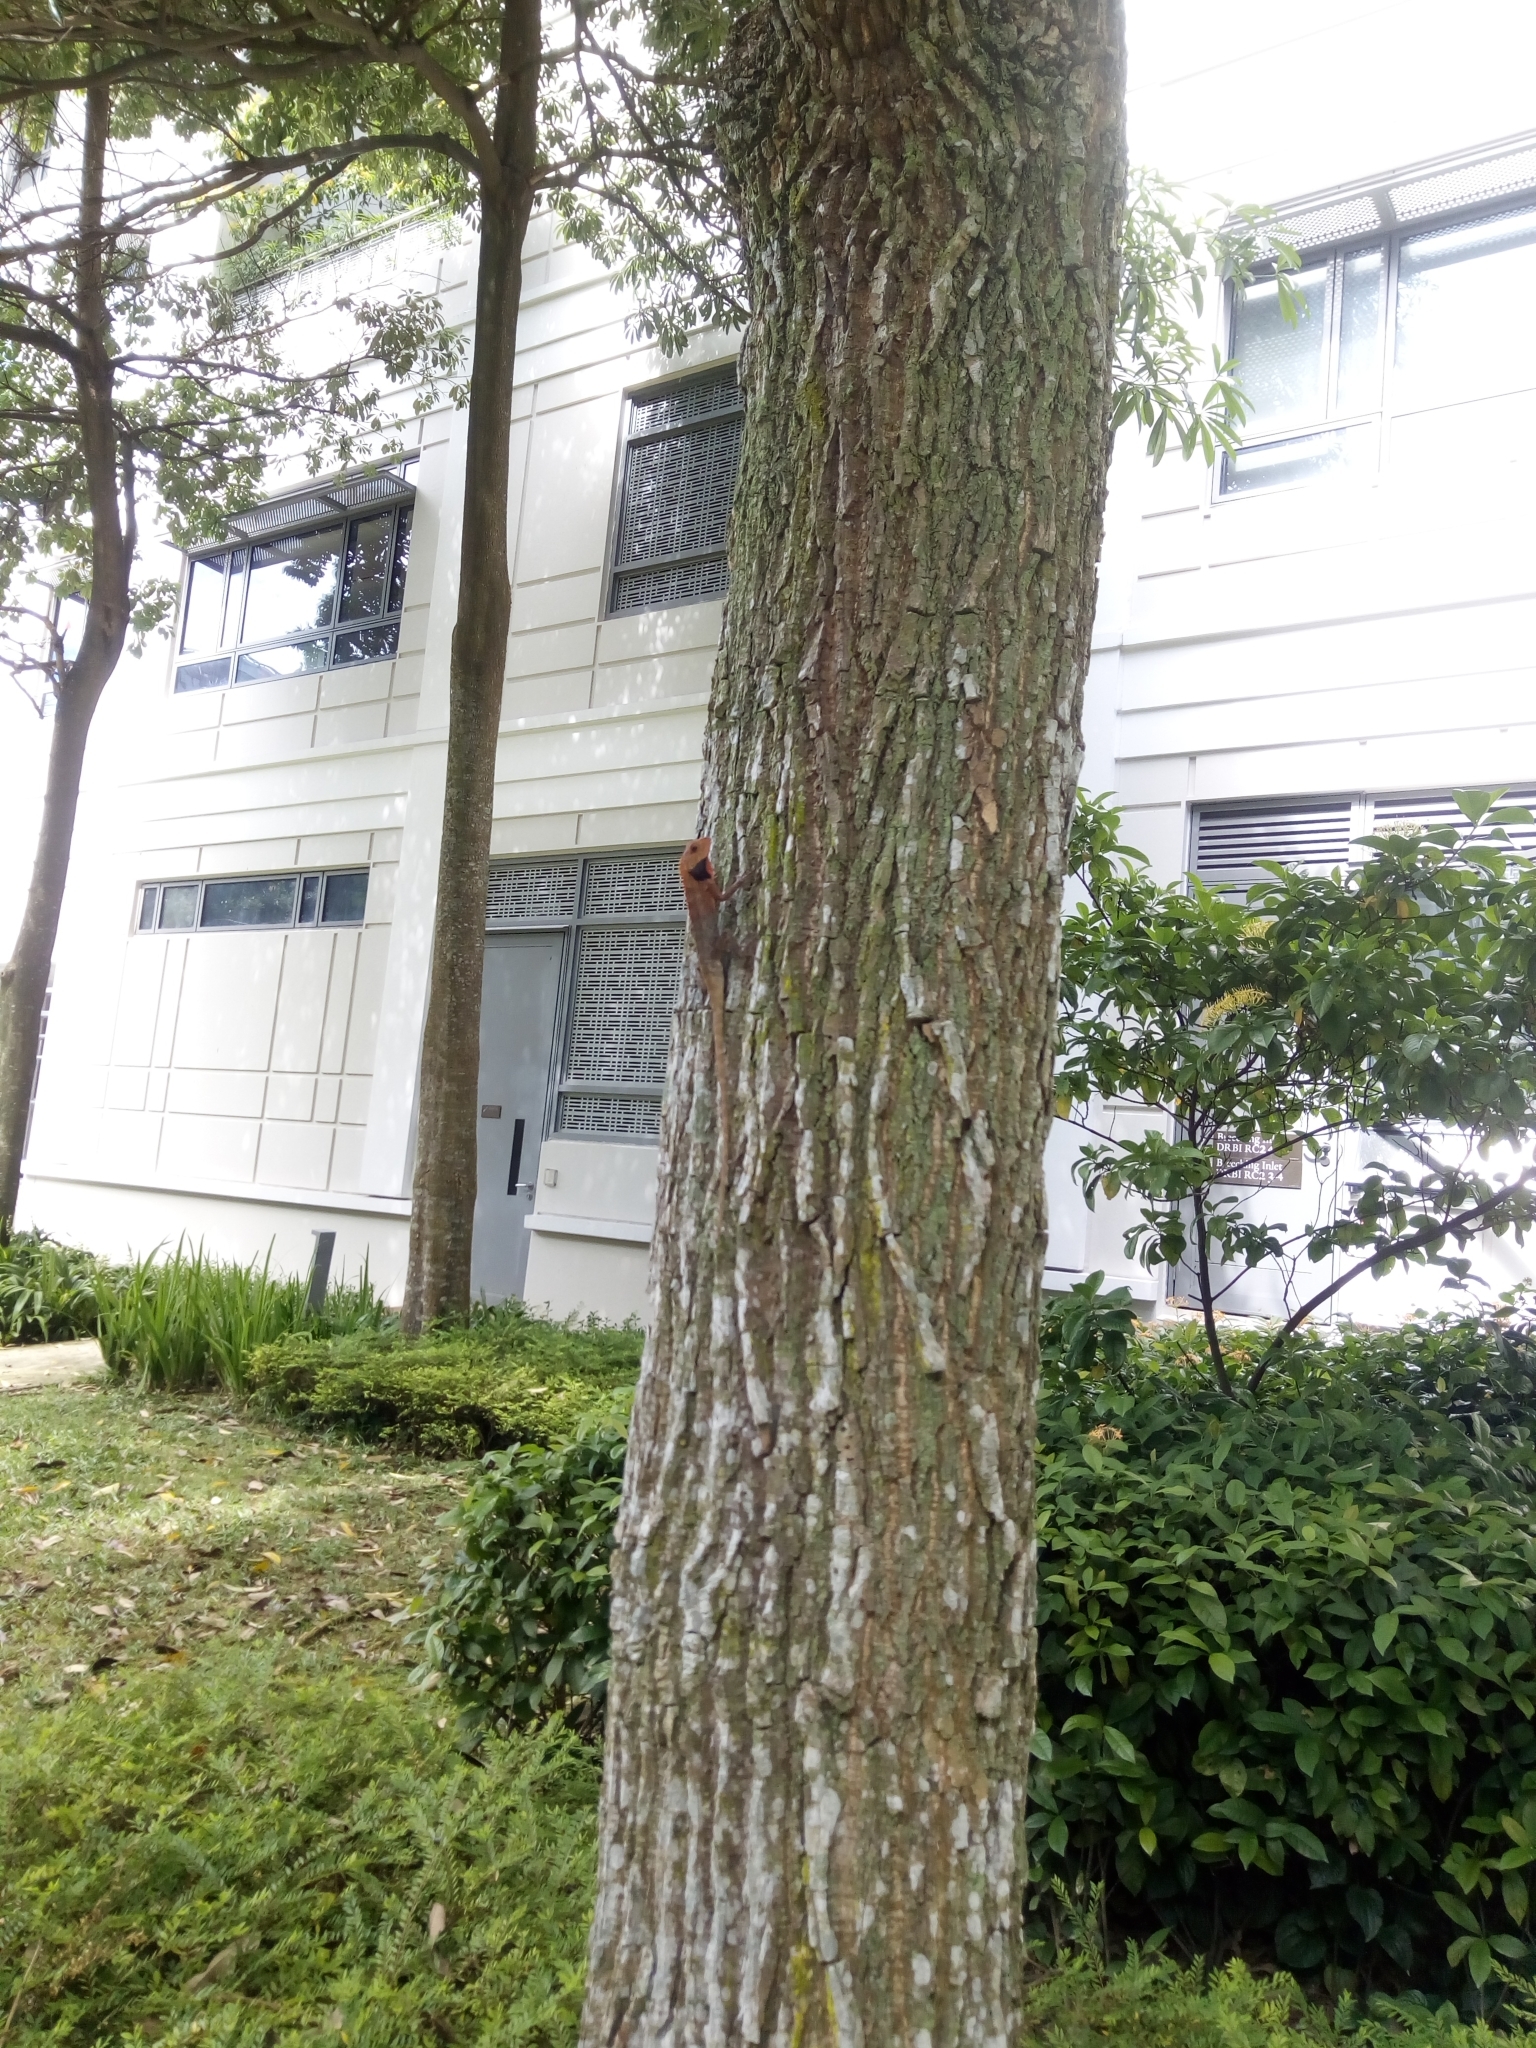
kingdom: Animalia
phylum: Chordata
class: Squamata
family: Agamidae
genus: Calotes
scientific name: Calotes versicolor
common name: Oriental garden lizard
